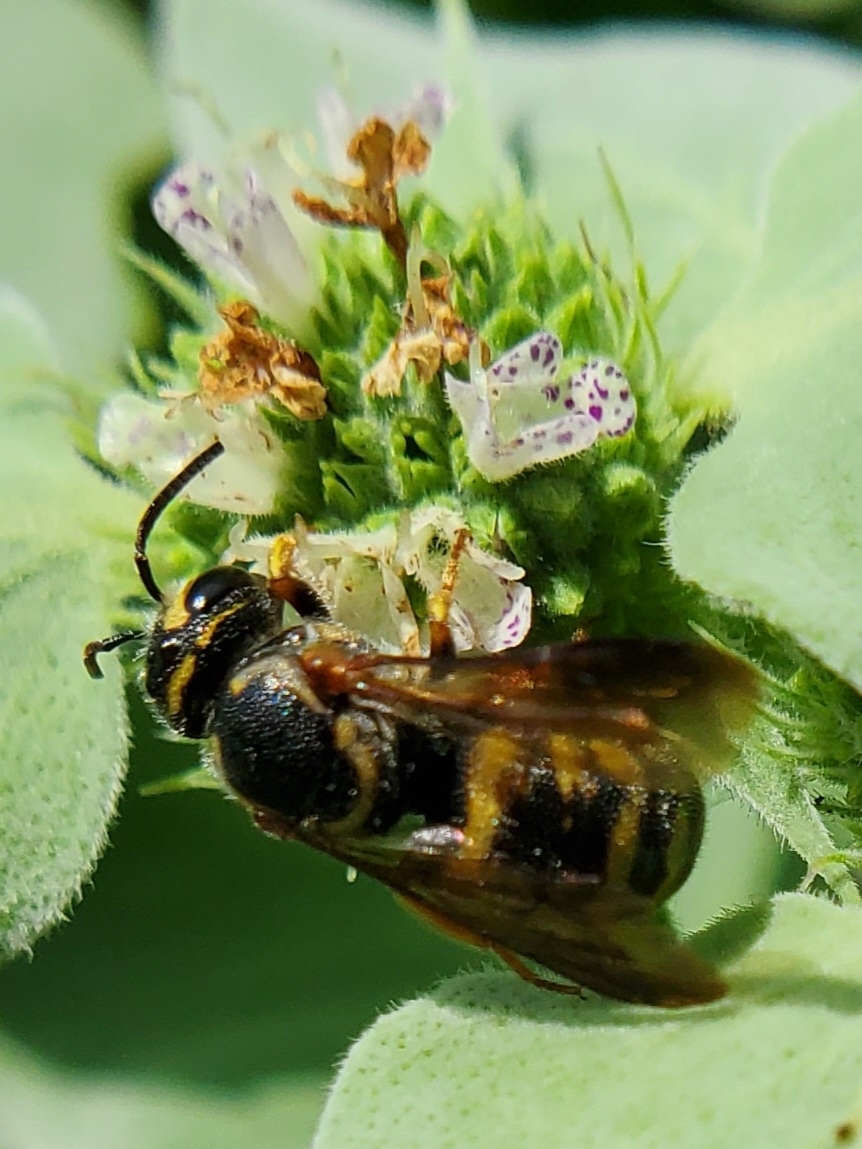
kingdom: Animalia
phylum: Arthropoda
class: Insecta
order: Hymenoptera
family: Megachilidae
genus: Stelis
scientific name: Stelis louisae
